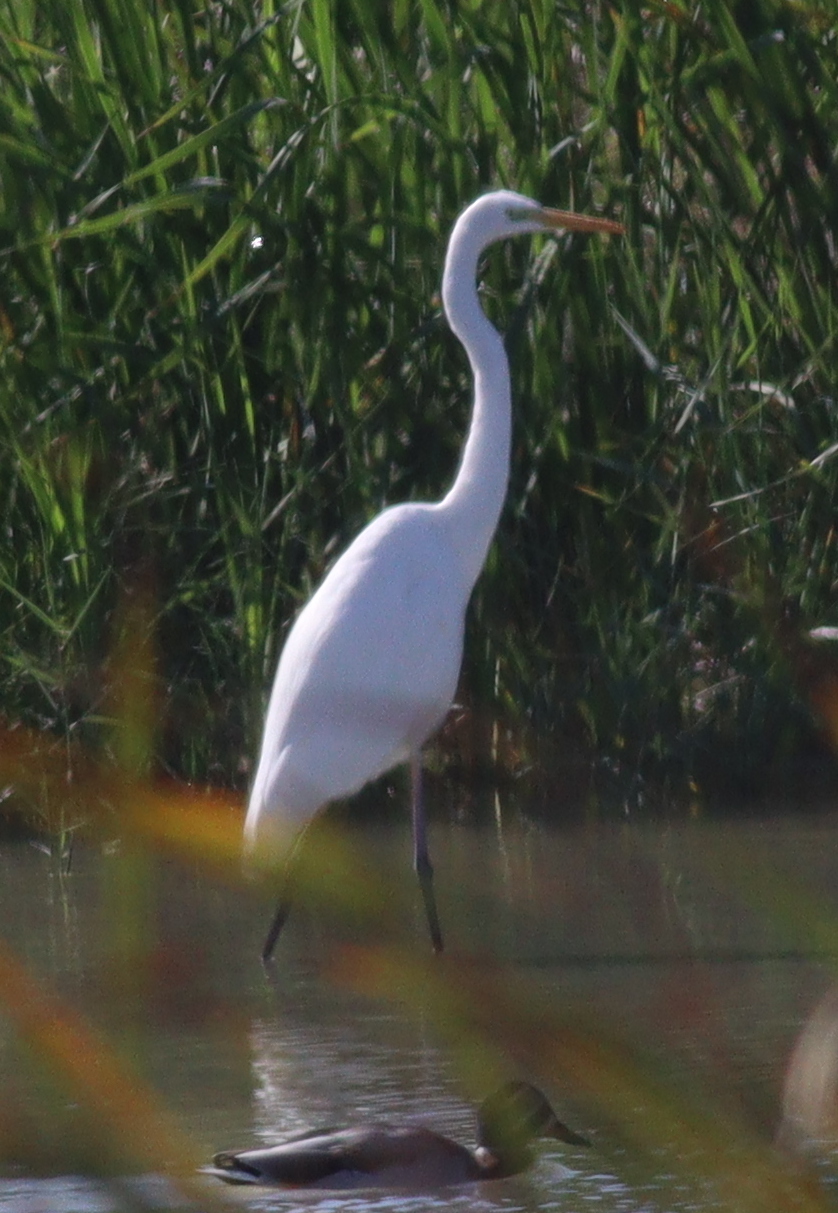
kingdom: Animalia
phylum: Chordata
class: Aves
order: Pelecaniformes
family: Ardeidae
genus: Ardea
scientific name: Ardea alba
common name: Great egret
